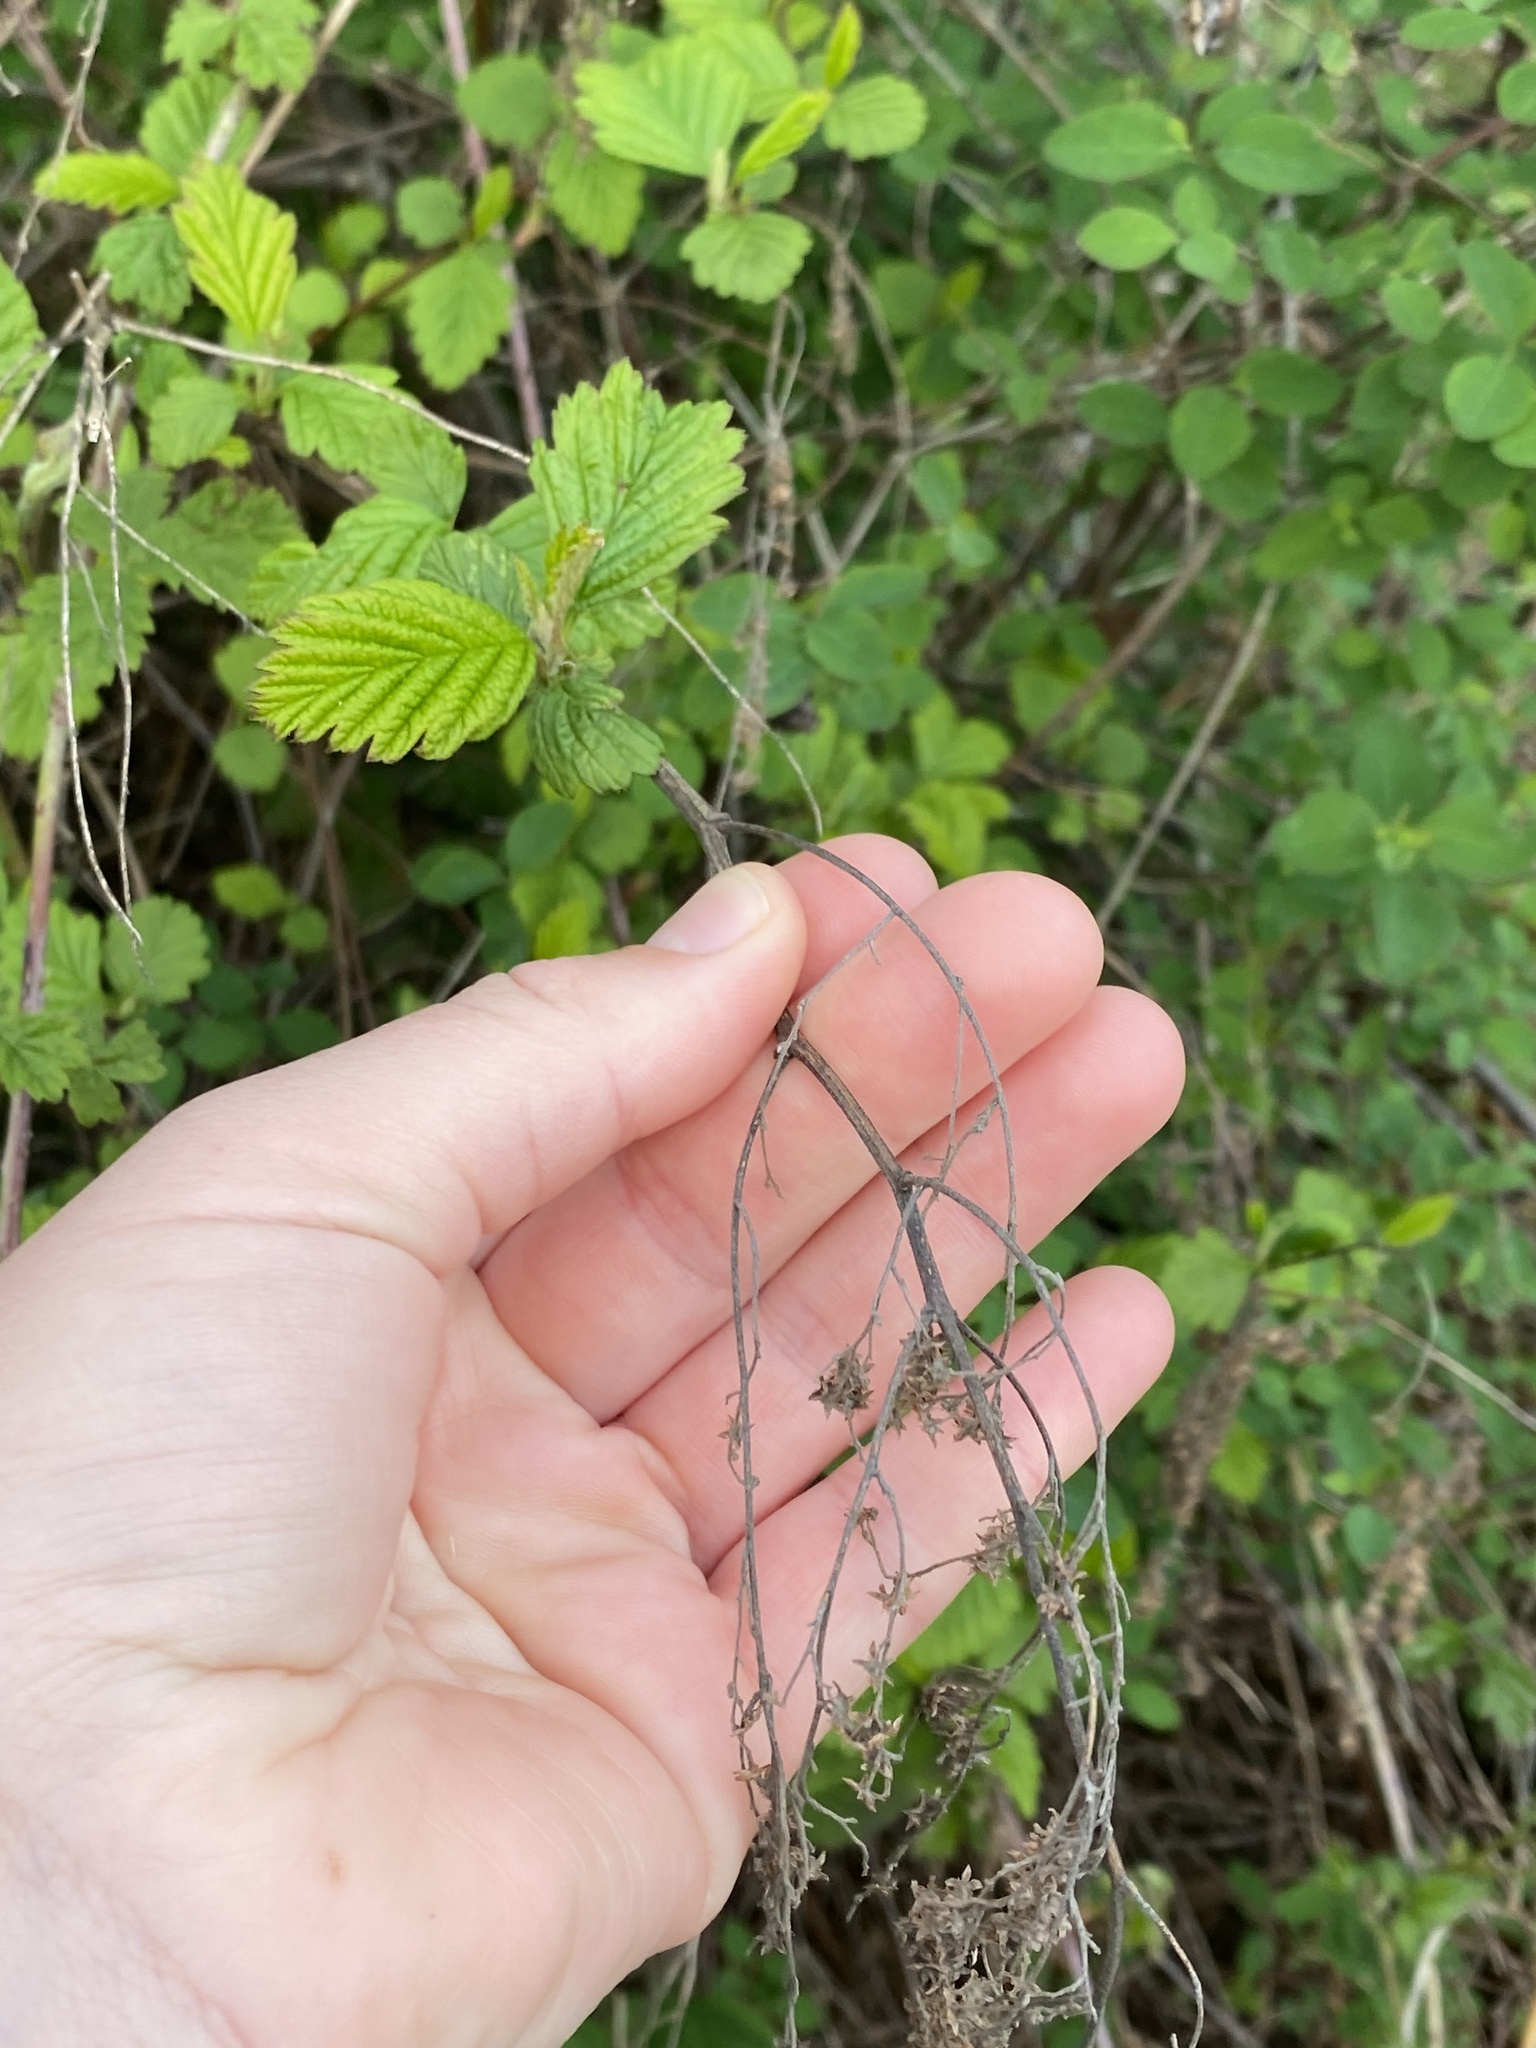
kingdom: Plantae
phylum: Tracheophyta
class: Magnoliopsida
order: Rosales
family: Rosaceae
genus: Holodiscus
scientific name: Holodiscus discolor
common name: Oceanspray
